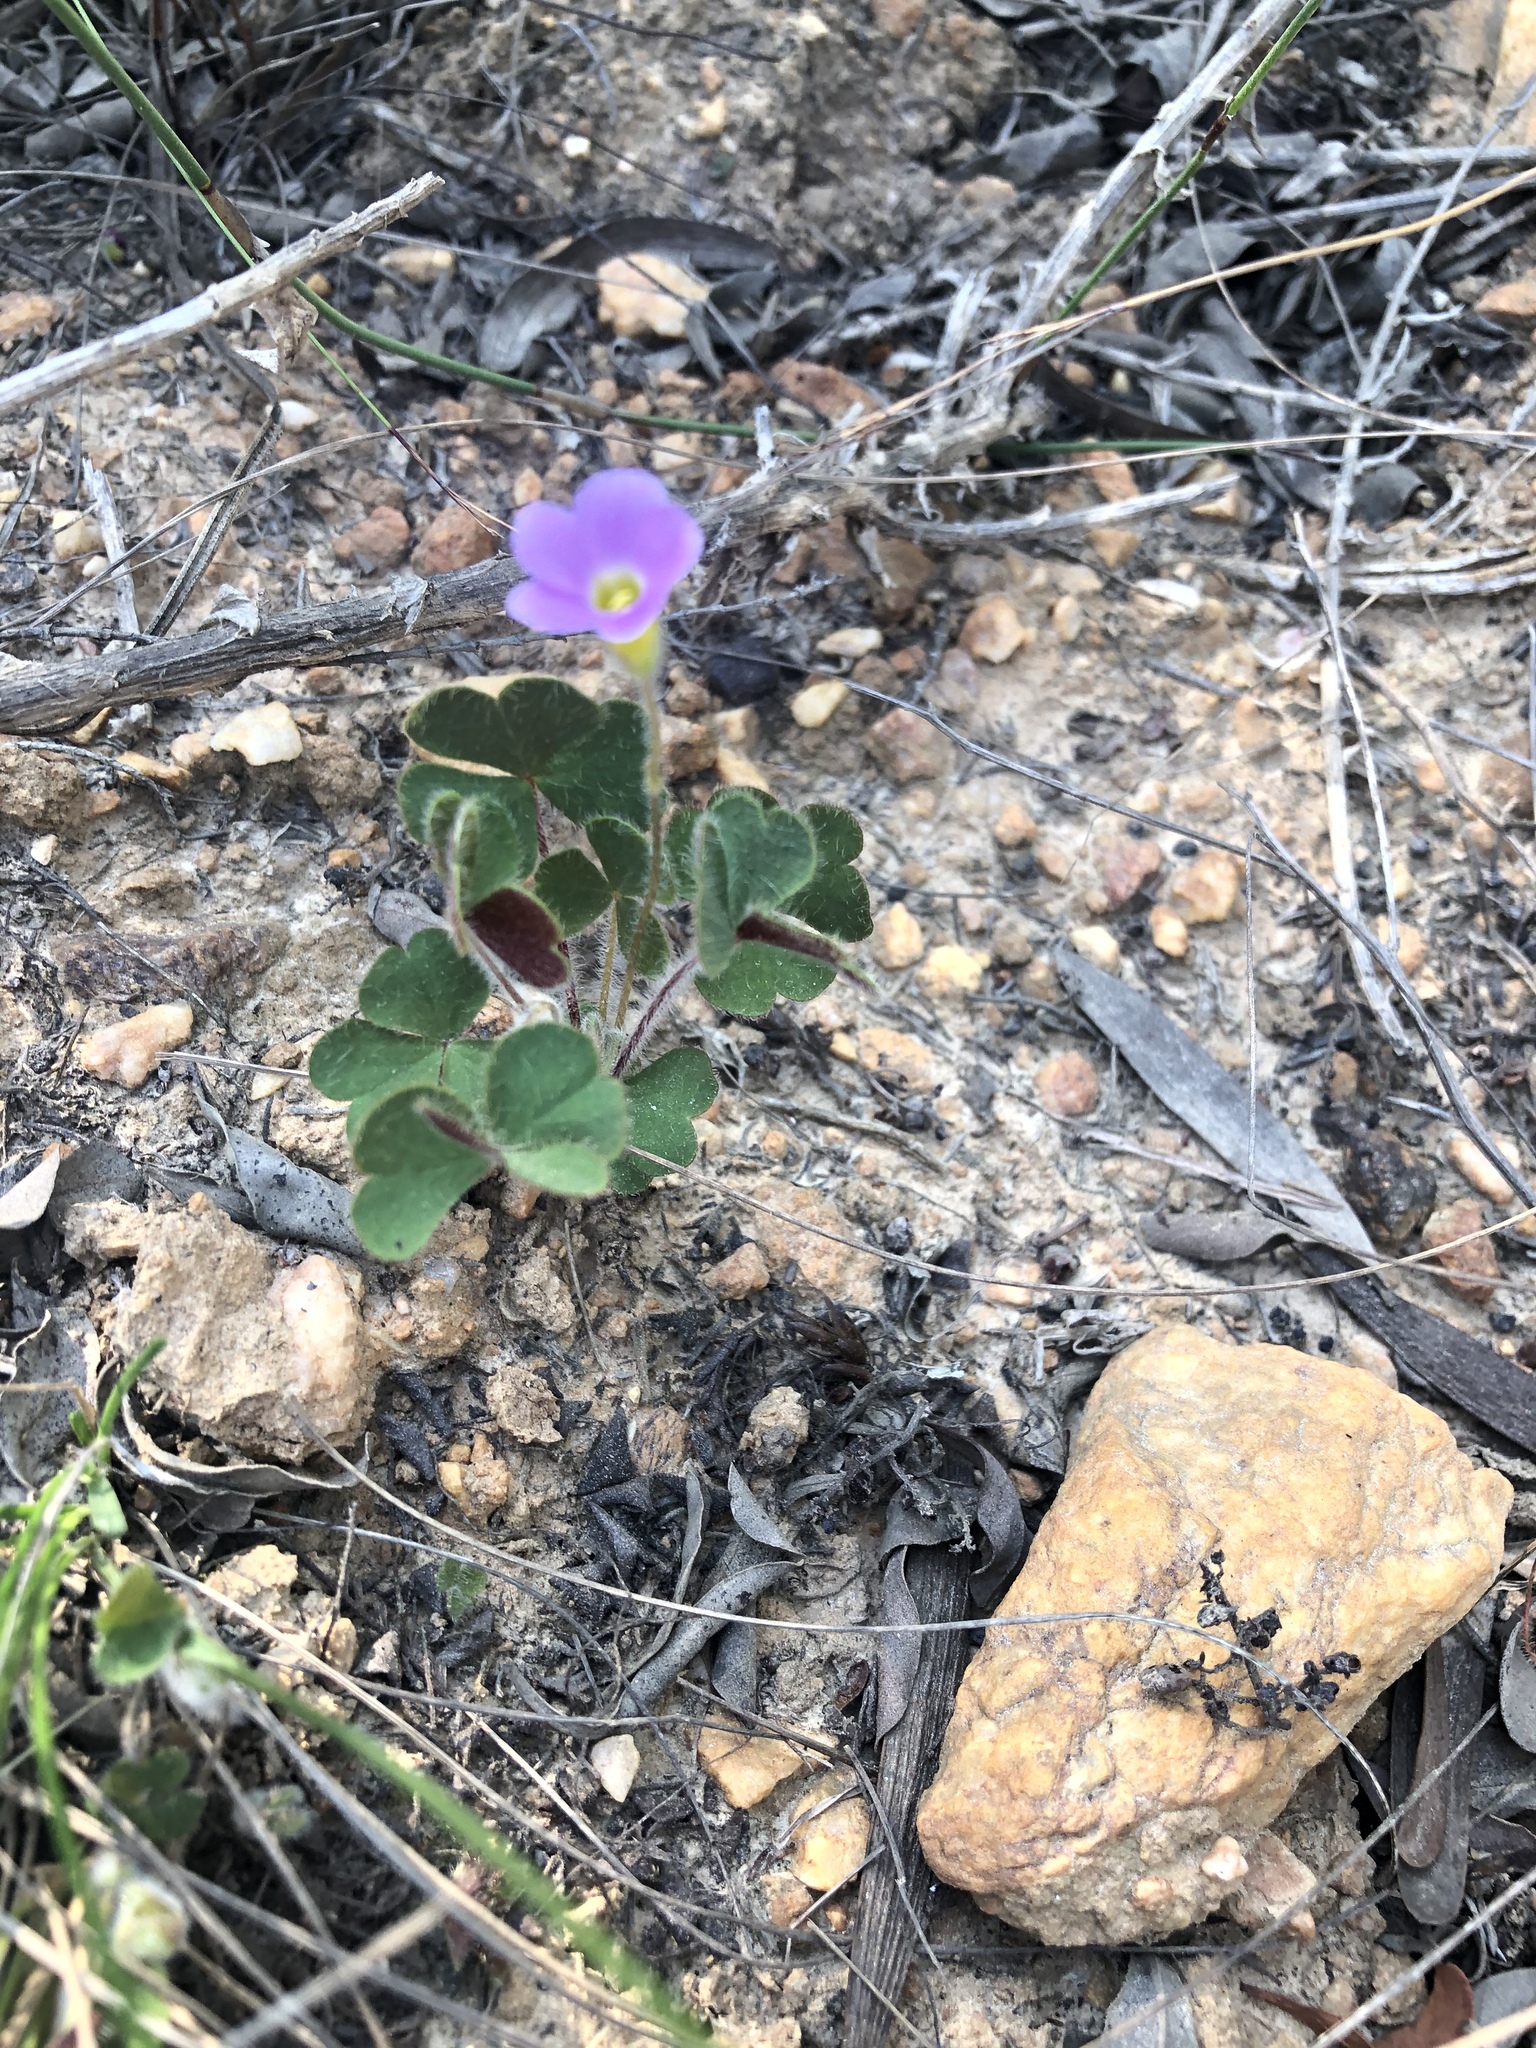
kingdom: Plantae
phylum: Tracheophyta
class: Magnoliopsida
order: Oxalidales
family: Oxalidaceae
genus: Oxalis
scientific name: Oxalis imbricata
